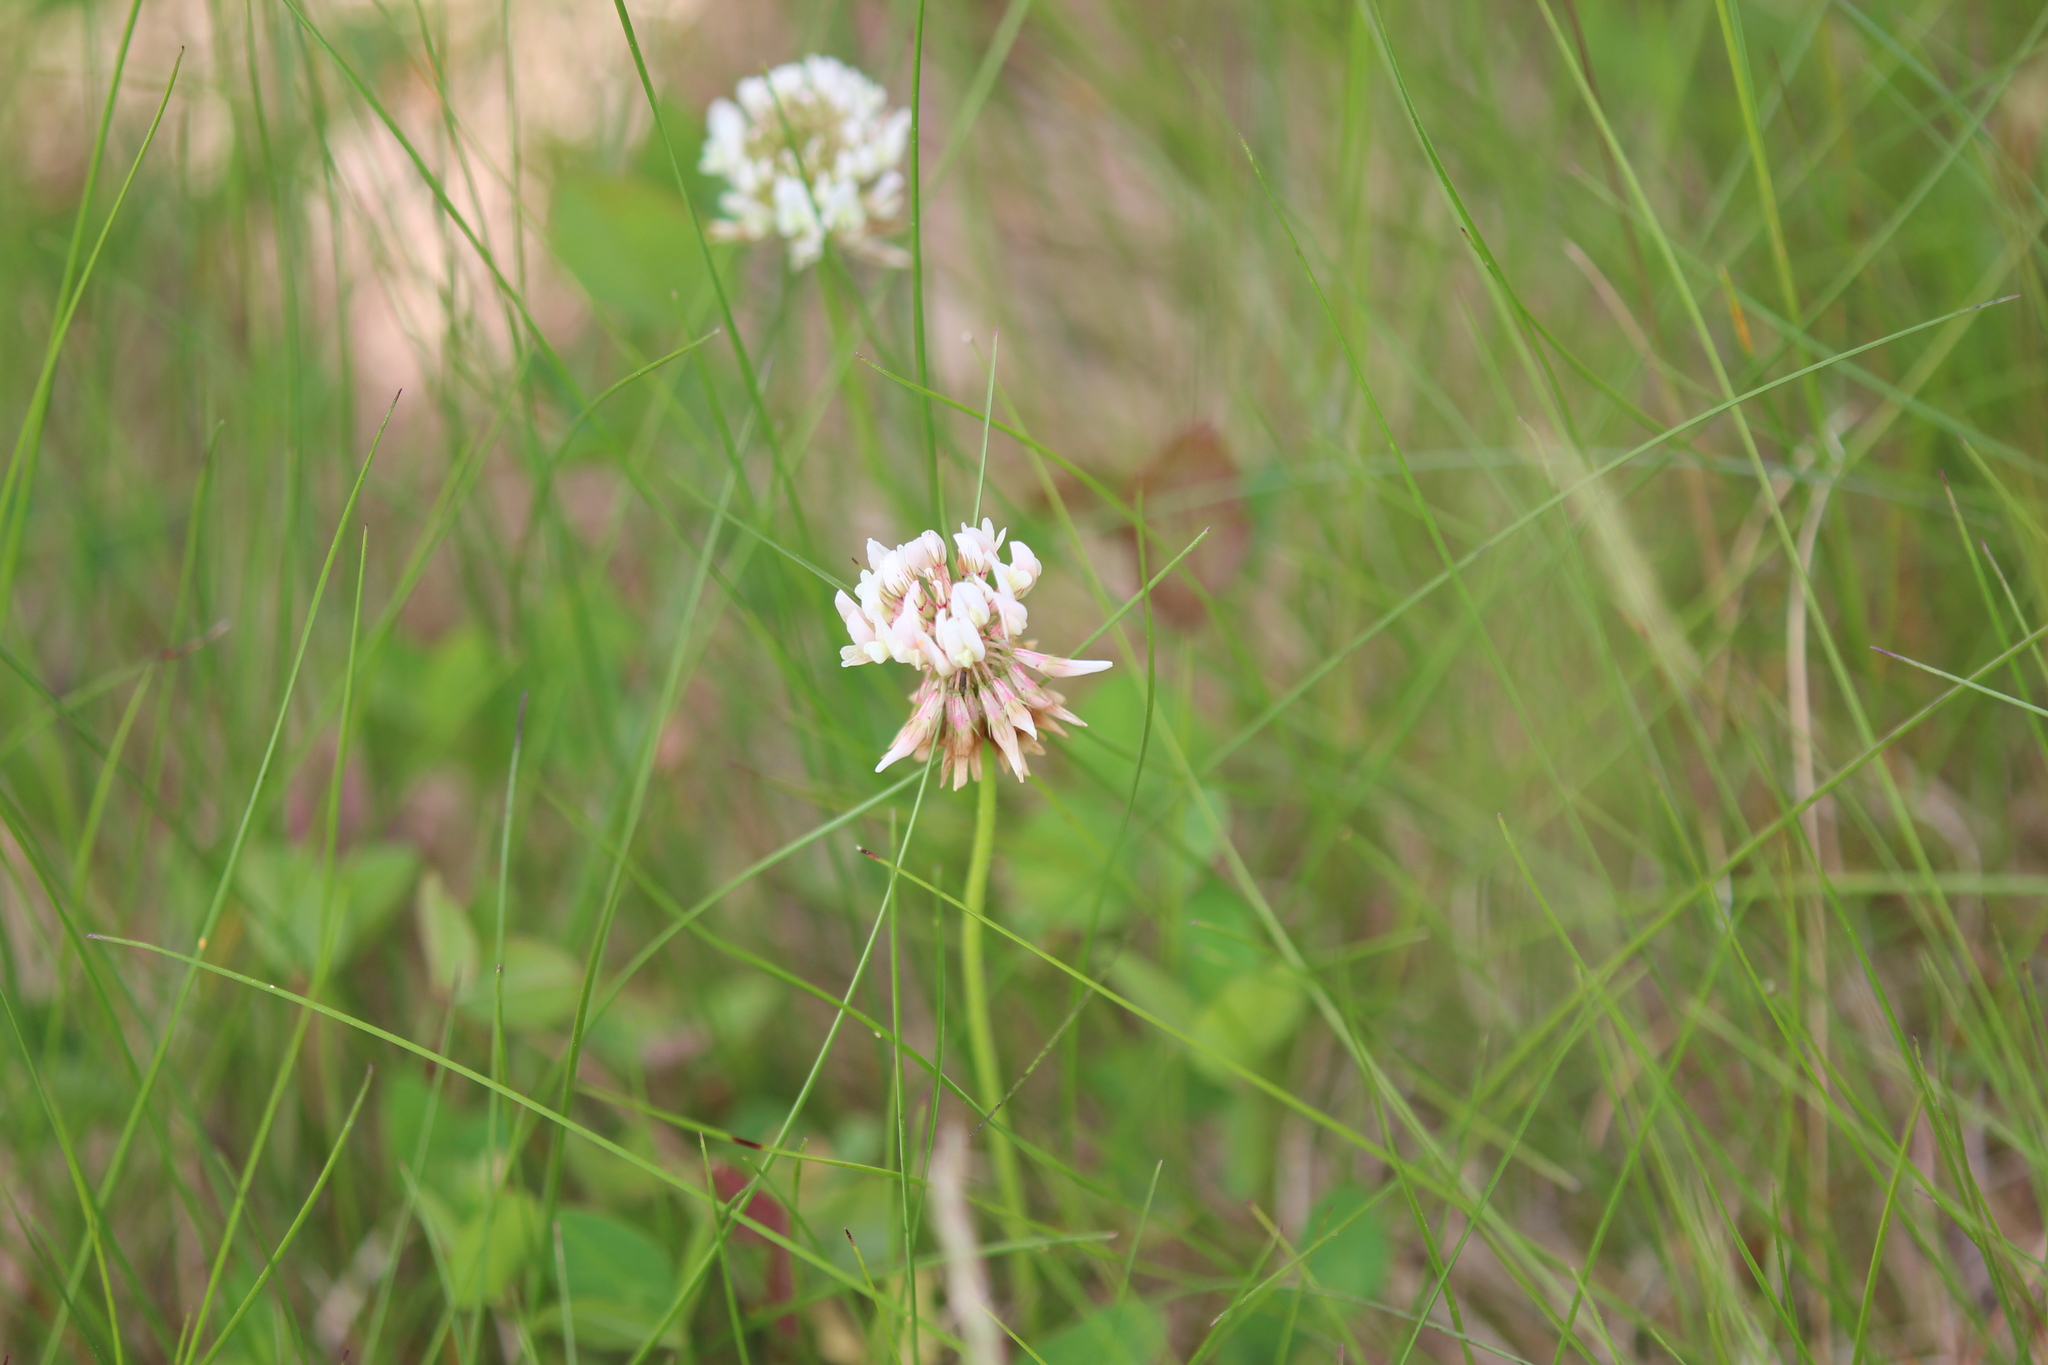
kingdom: Plantae
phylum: Tracheophyta
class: Magnoliopsida
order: Fabales
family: Fabaceae
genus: Trifolium
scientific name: Trifolium repens
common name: White clover
